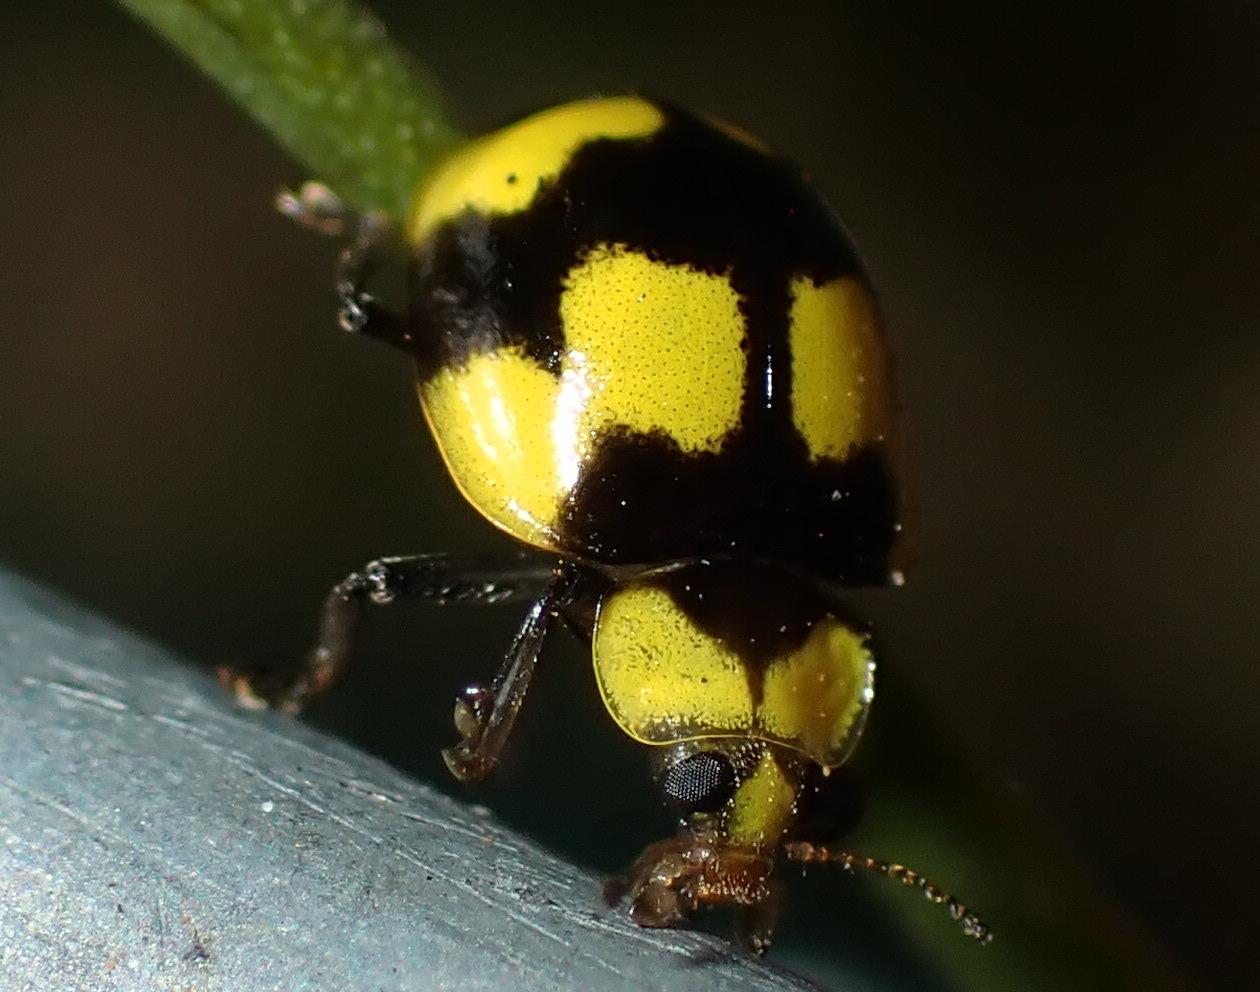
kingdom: Animalia
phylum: Arthropoda
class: Insecta
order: Coleoptera
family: Coccinellidae
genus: Illeis
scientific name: Illeis galbula
